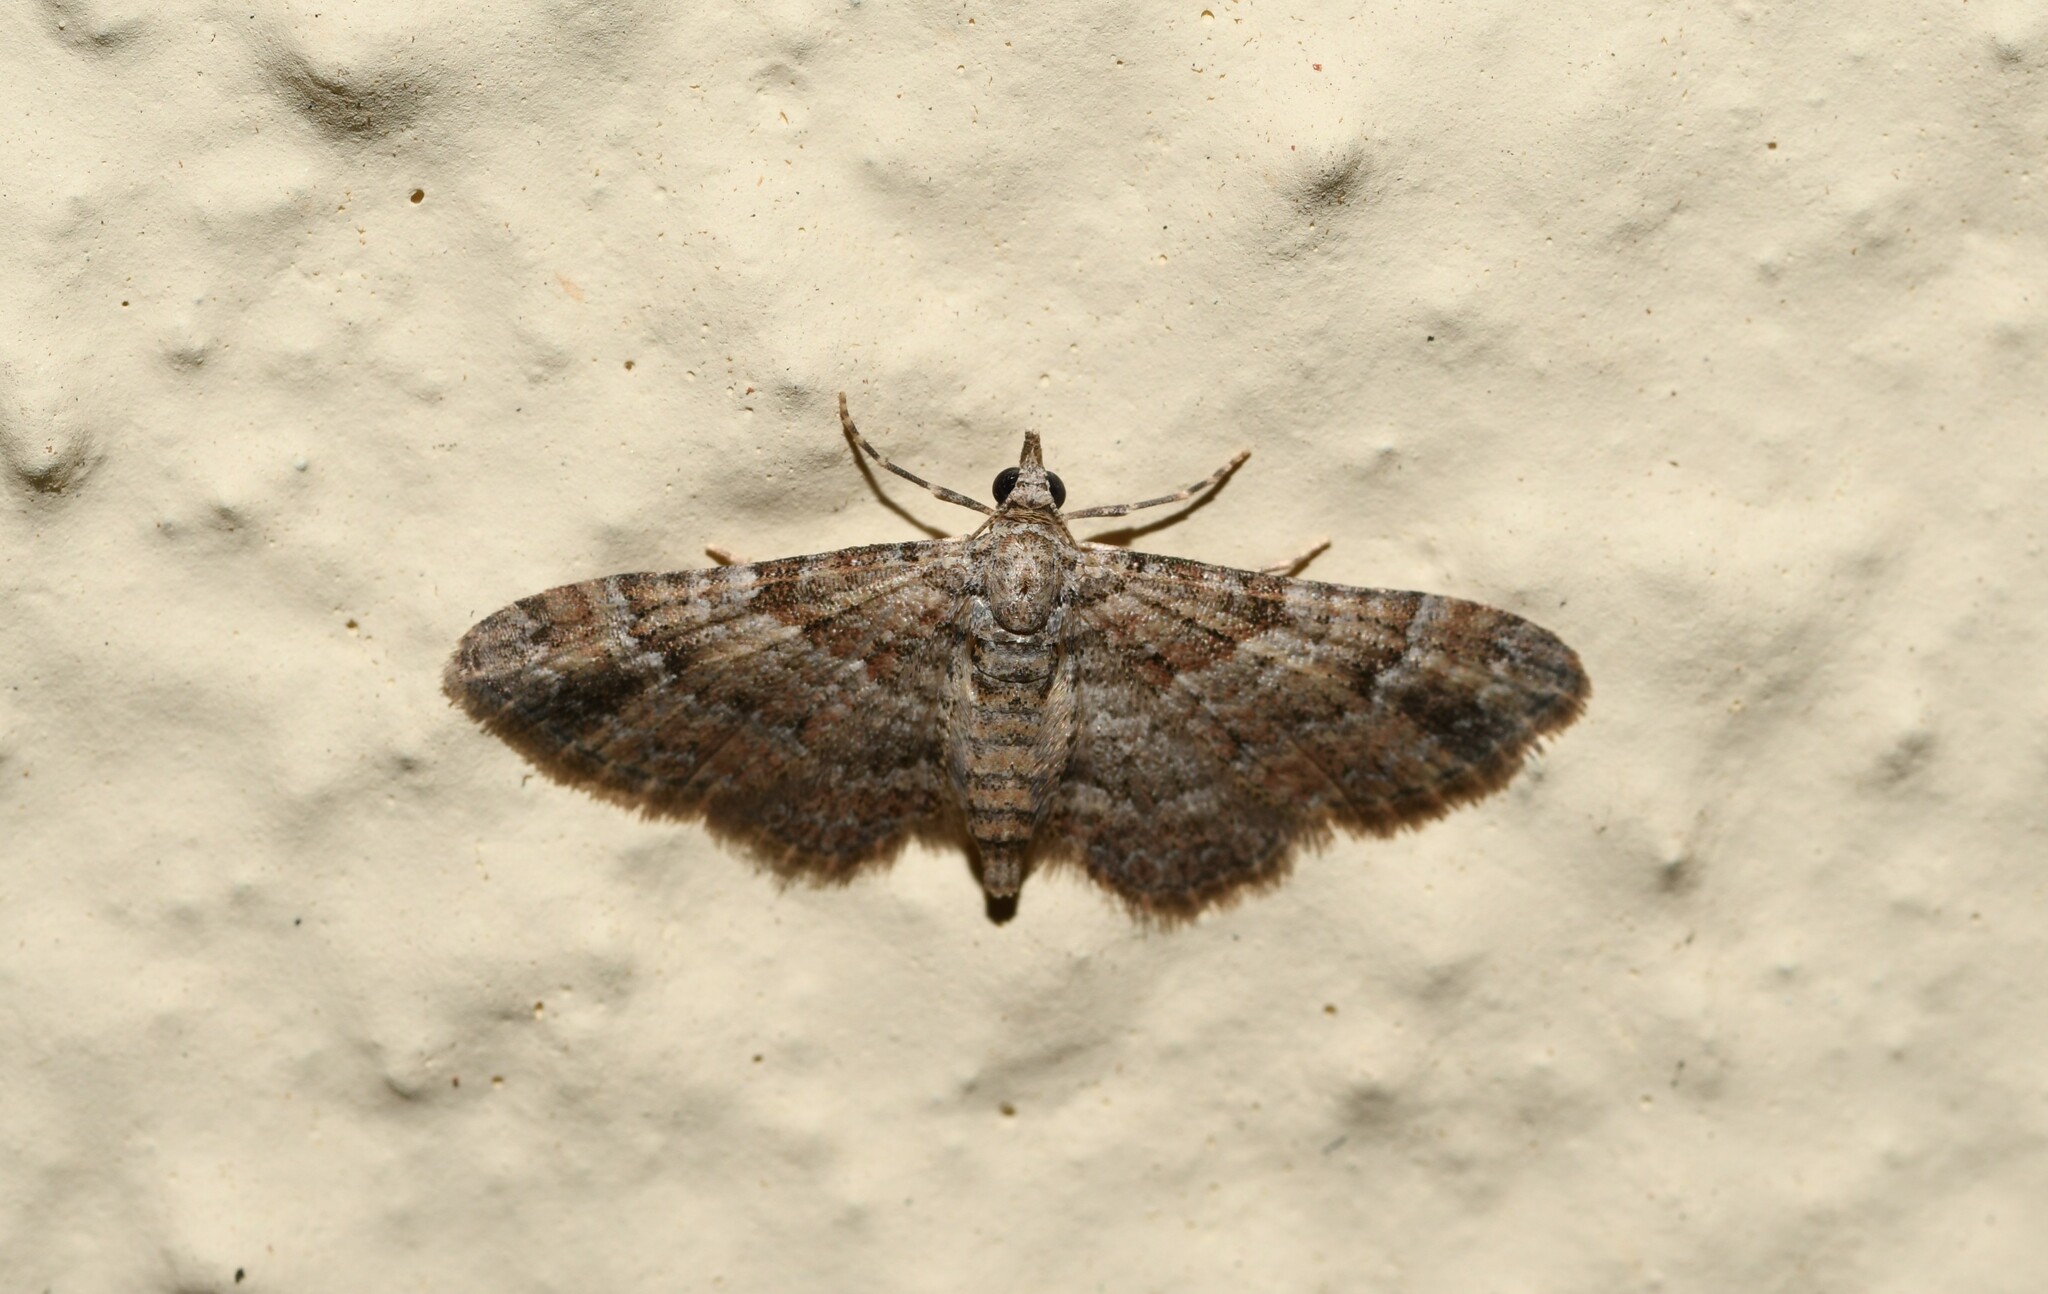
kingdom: Animalia
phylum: Arthropoda
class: Insecta
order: Lepidoptera
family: Geometridae
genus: Gymnoscelis
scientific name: Gymnoscelis rufifasciata
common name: Double-striped pug
